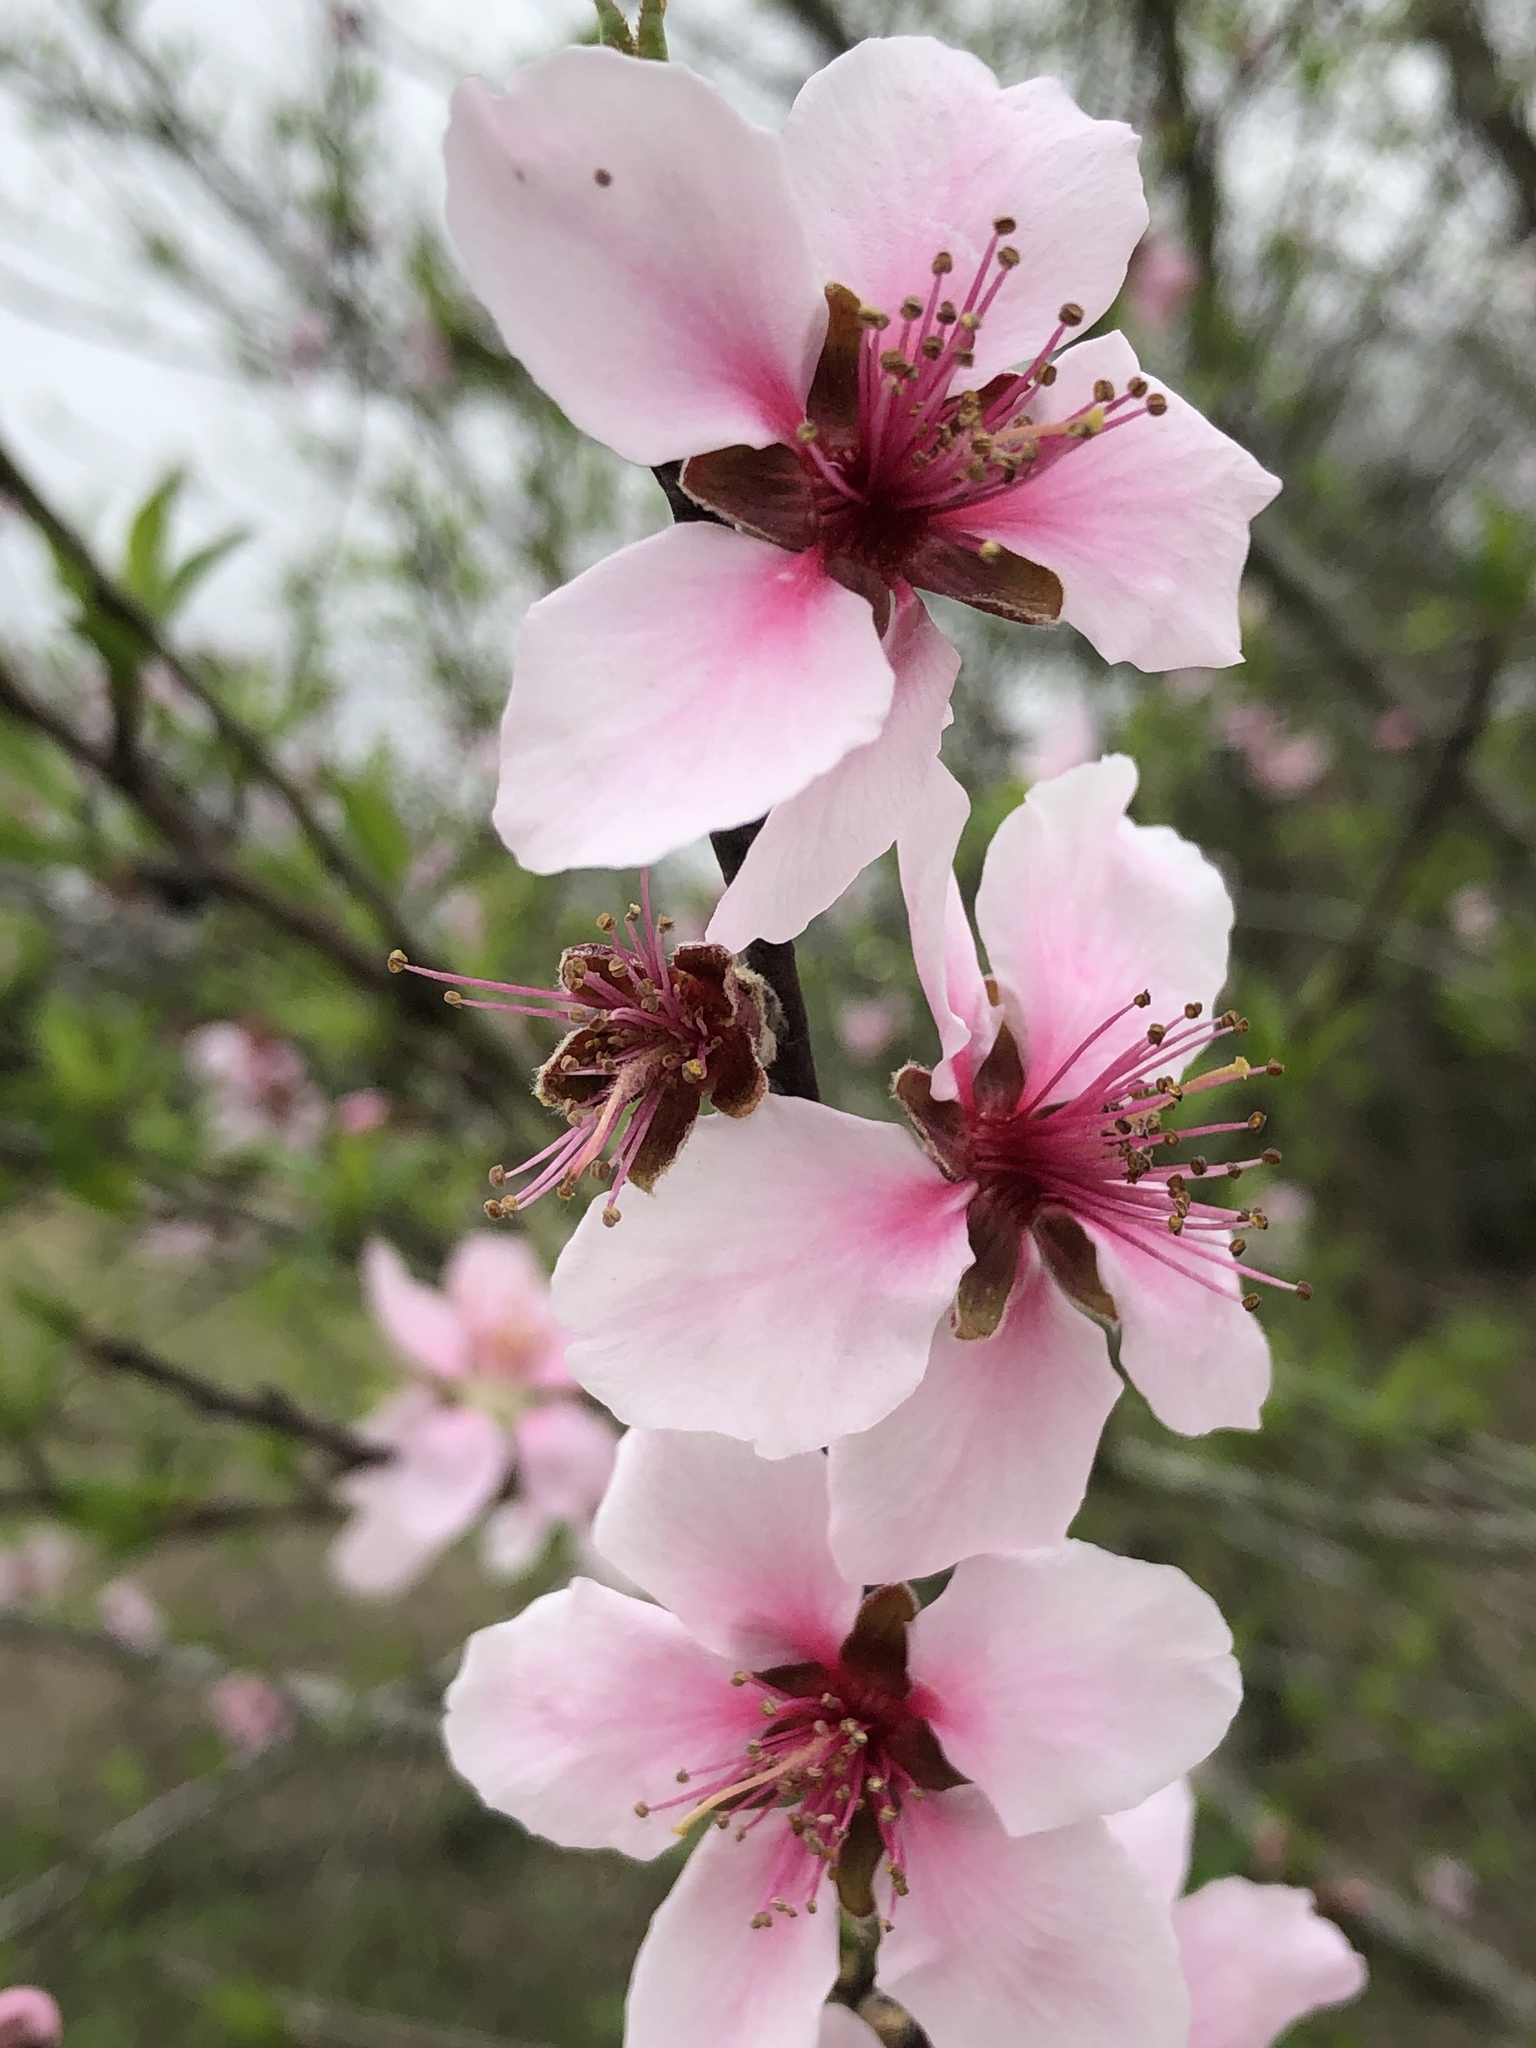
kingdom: Plantae
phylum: Tracheophyta
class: Magnoliopsida
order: Rosales
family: Rosaceae
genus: Prunus
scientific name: Prunus persica
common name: Peach
